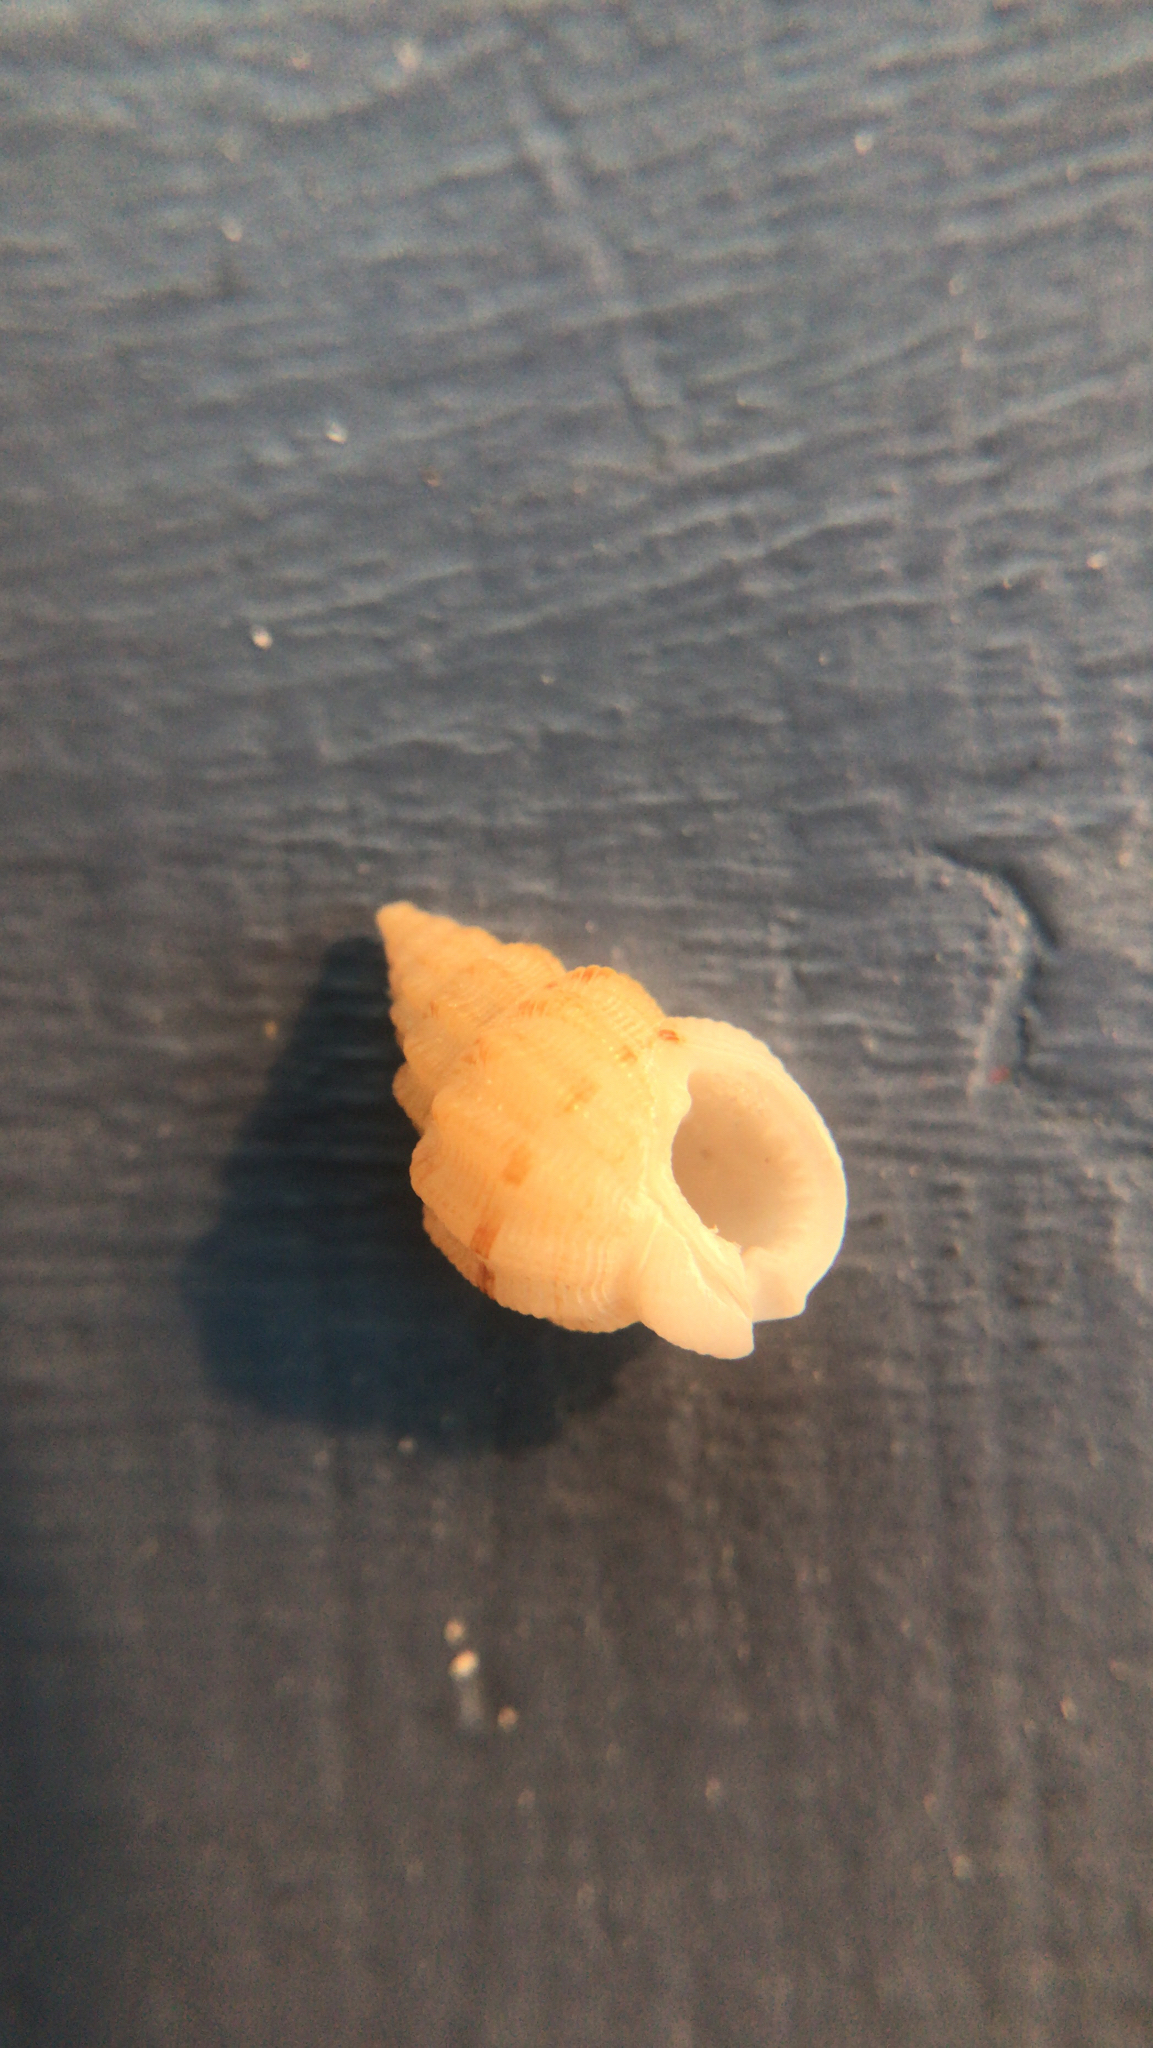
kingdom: Animalia
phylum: Mollusca
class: Gastropoda
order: Neogastropoda
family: Nassariidae
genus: Phrontis
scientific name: Phrontis vibex
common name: Bruised nassa
